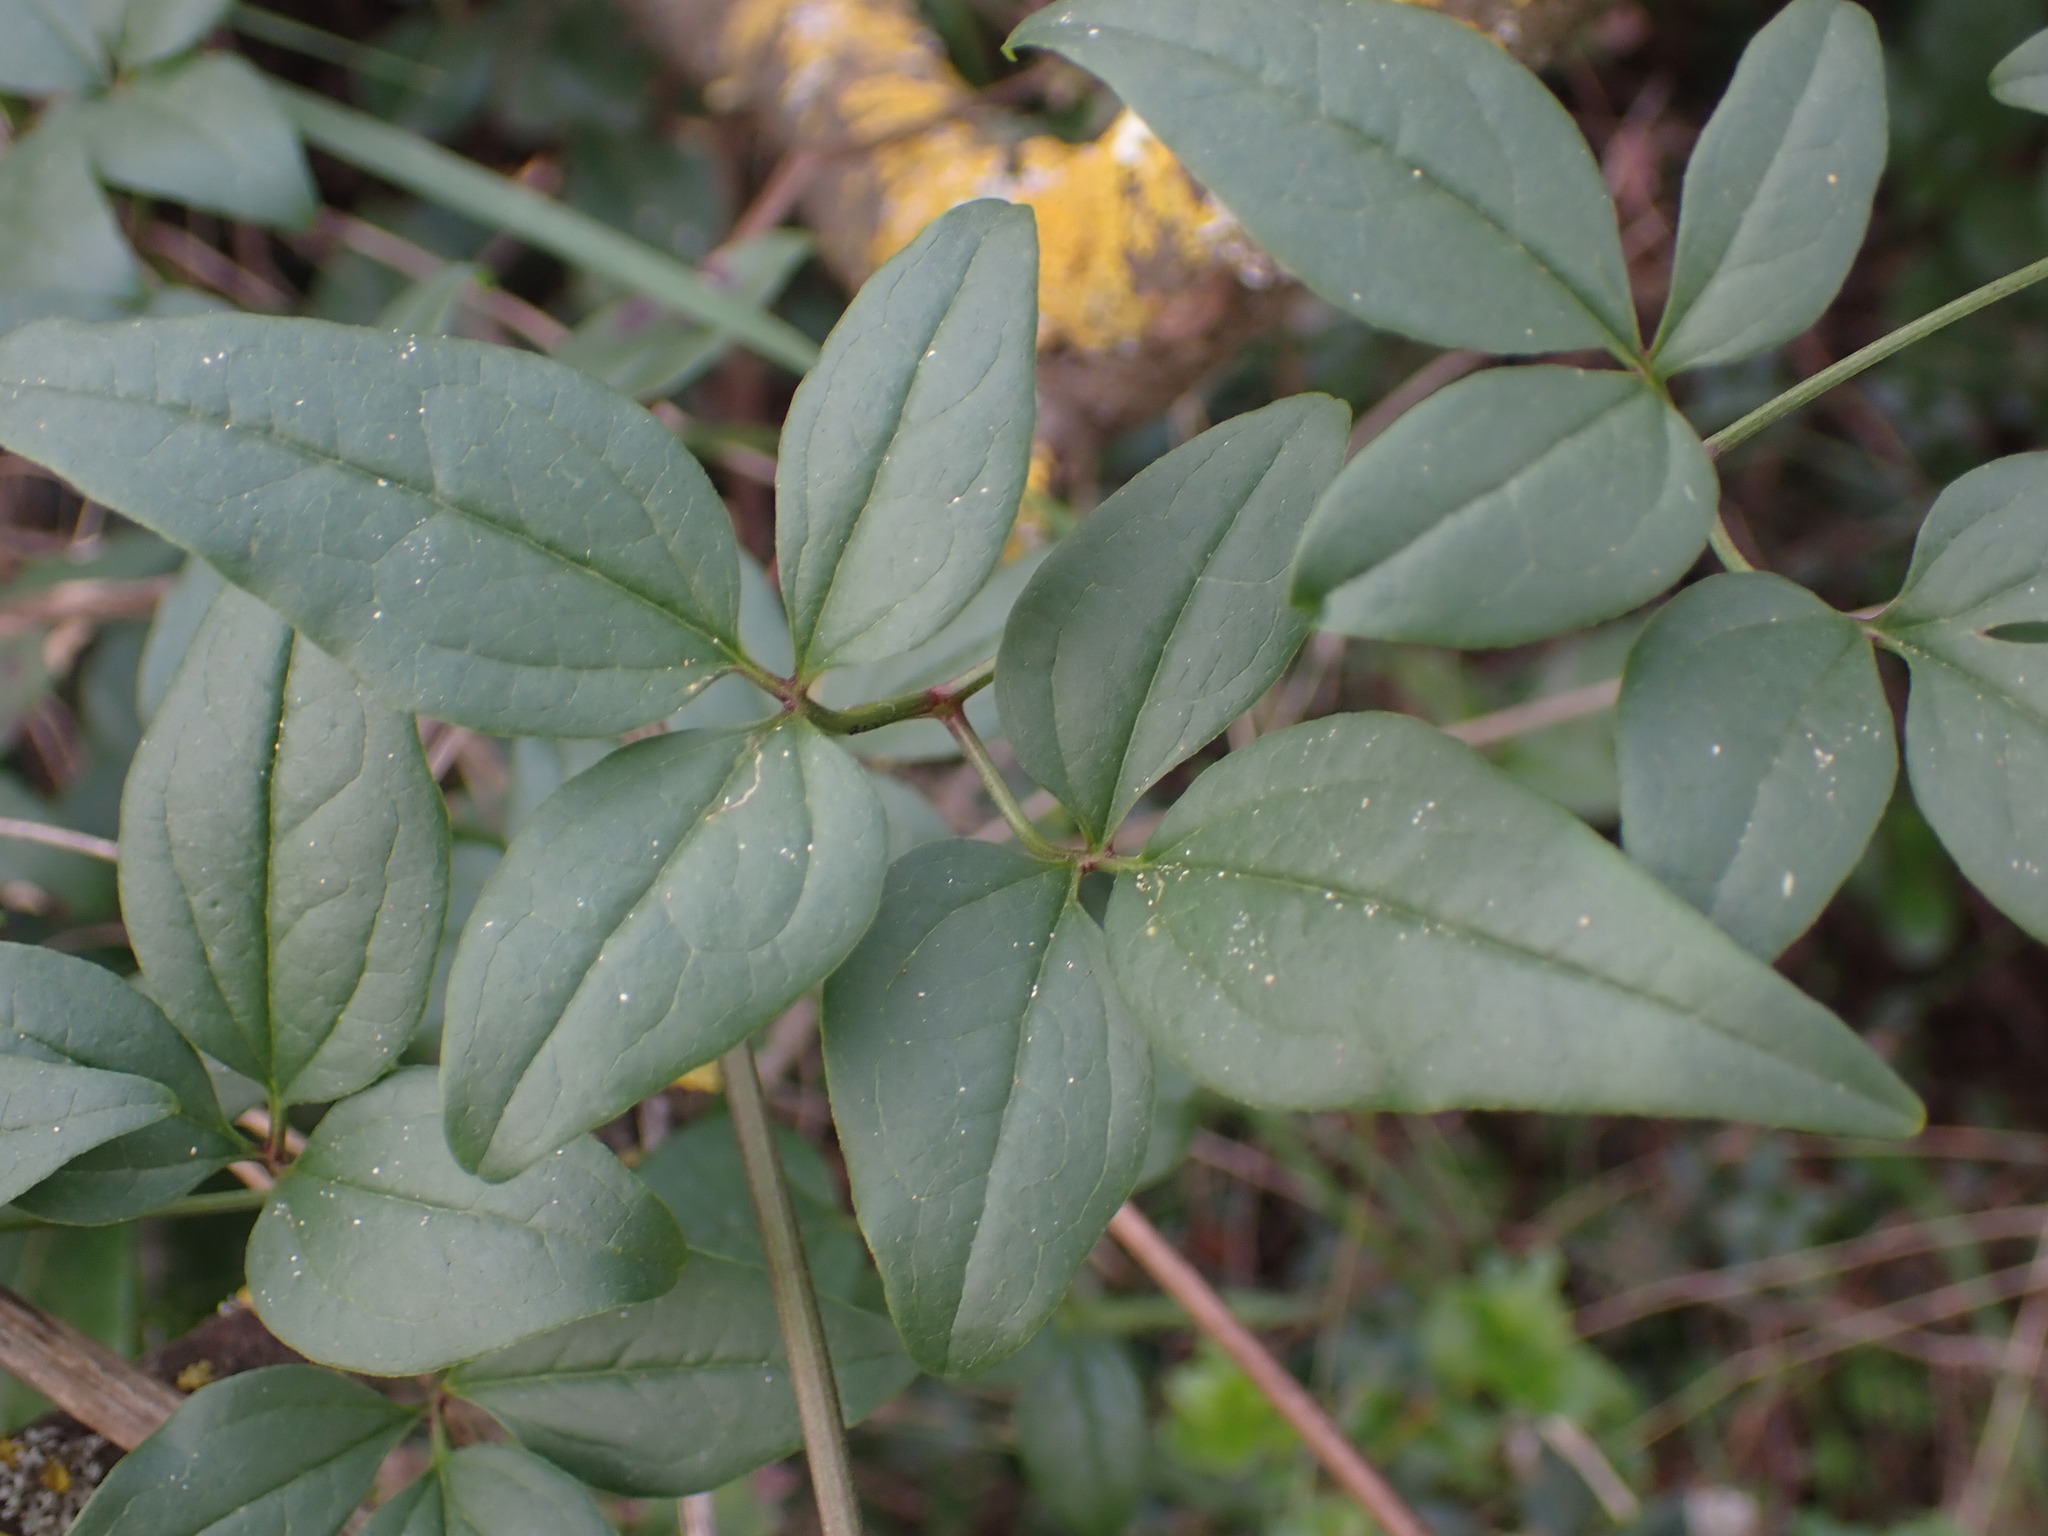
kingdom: Plantae
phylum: Tracheophyta
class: Magnoliopsida
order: Ranunculales
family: Ranunculaceae
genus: Clematis
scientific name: Clematis flammula
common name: Virgin's-bower
